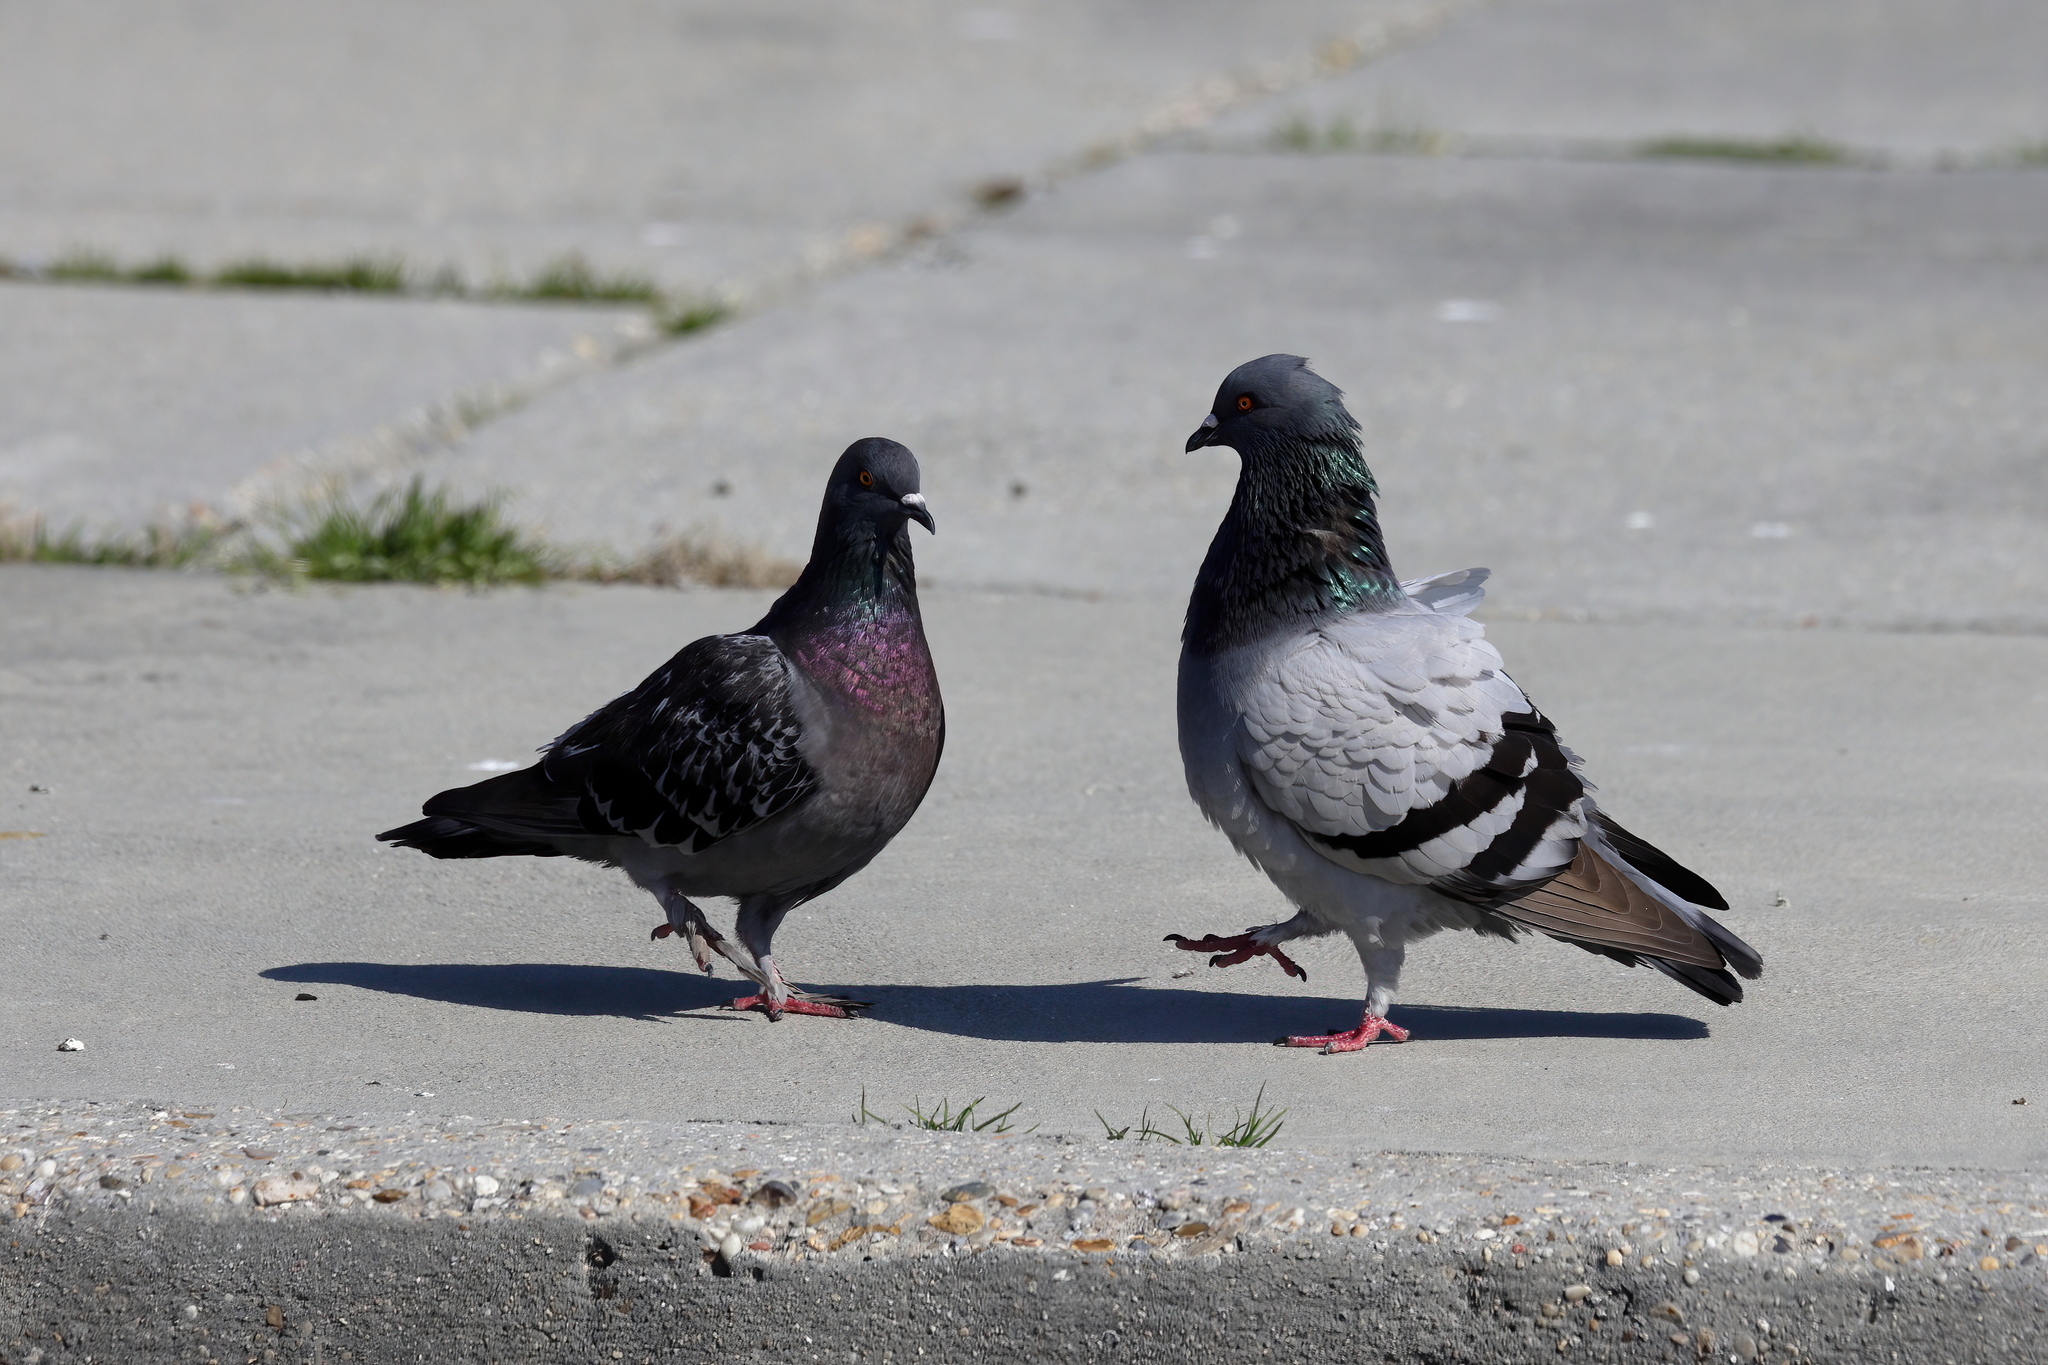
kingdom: Animalia
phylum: Chordata
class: Aves
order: Columbiformes
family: Columbidae
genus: Columba
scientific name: Columba livia
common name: Rock pigeon
